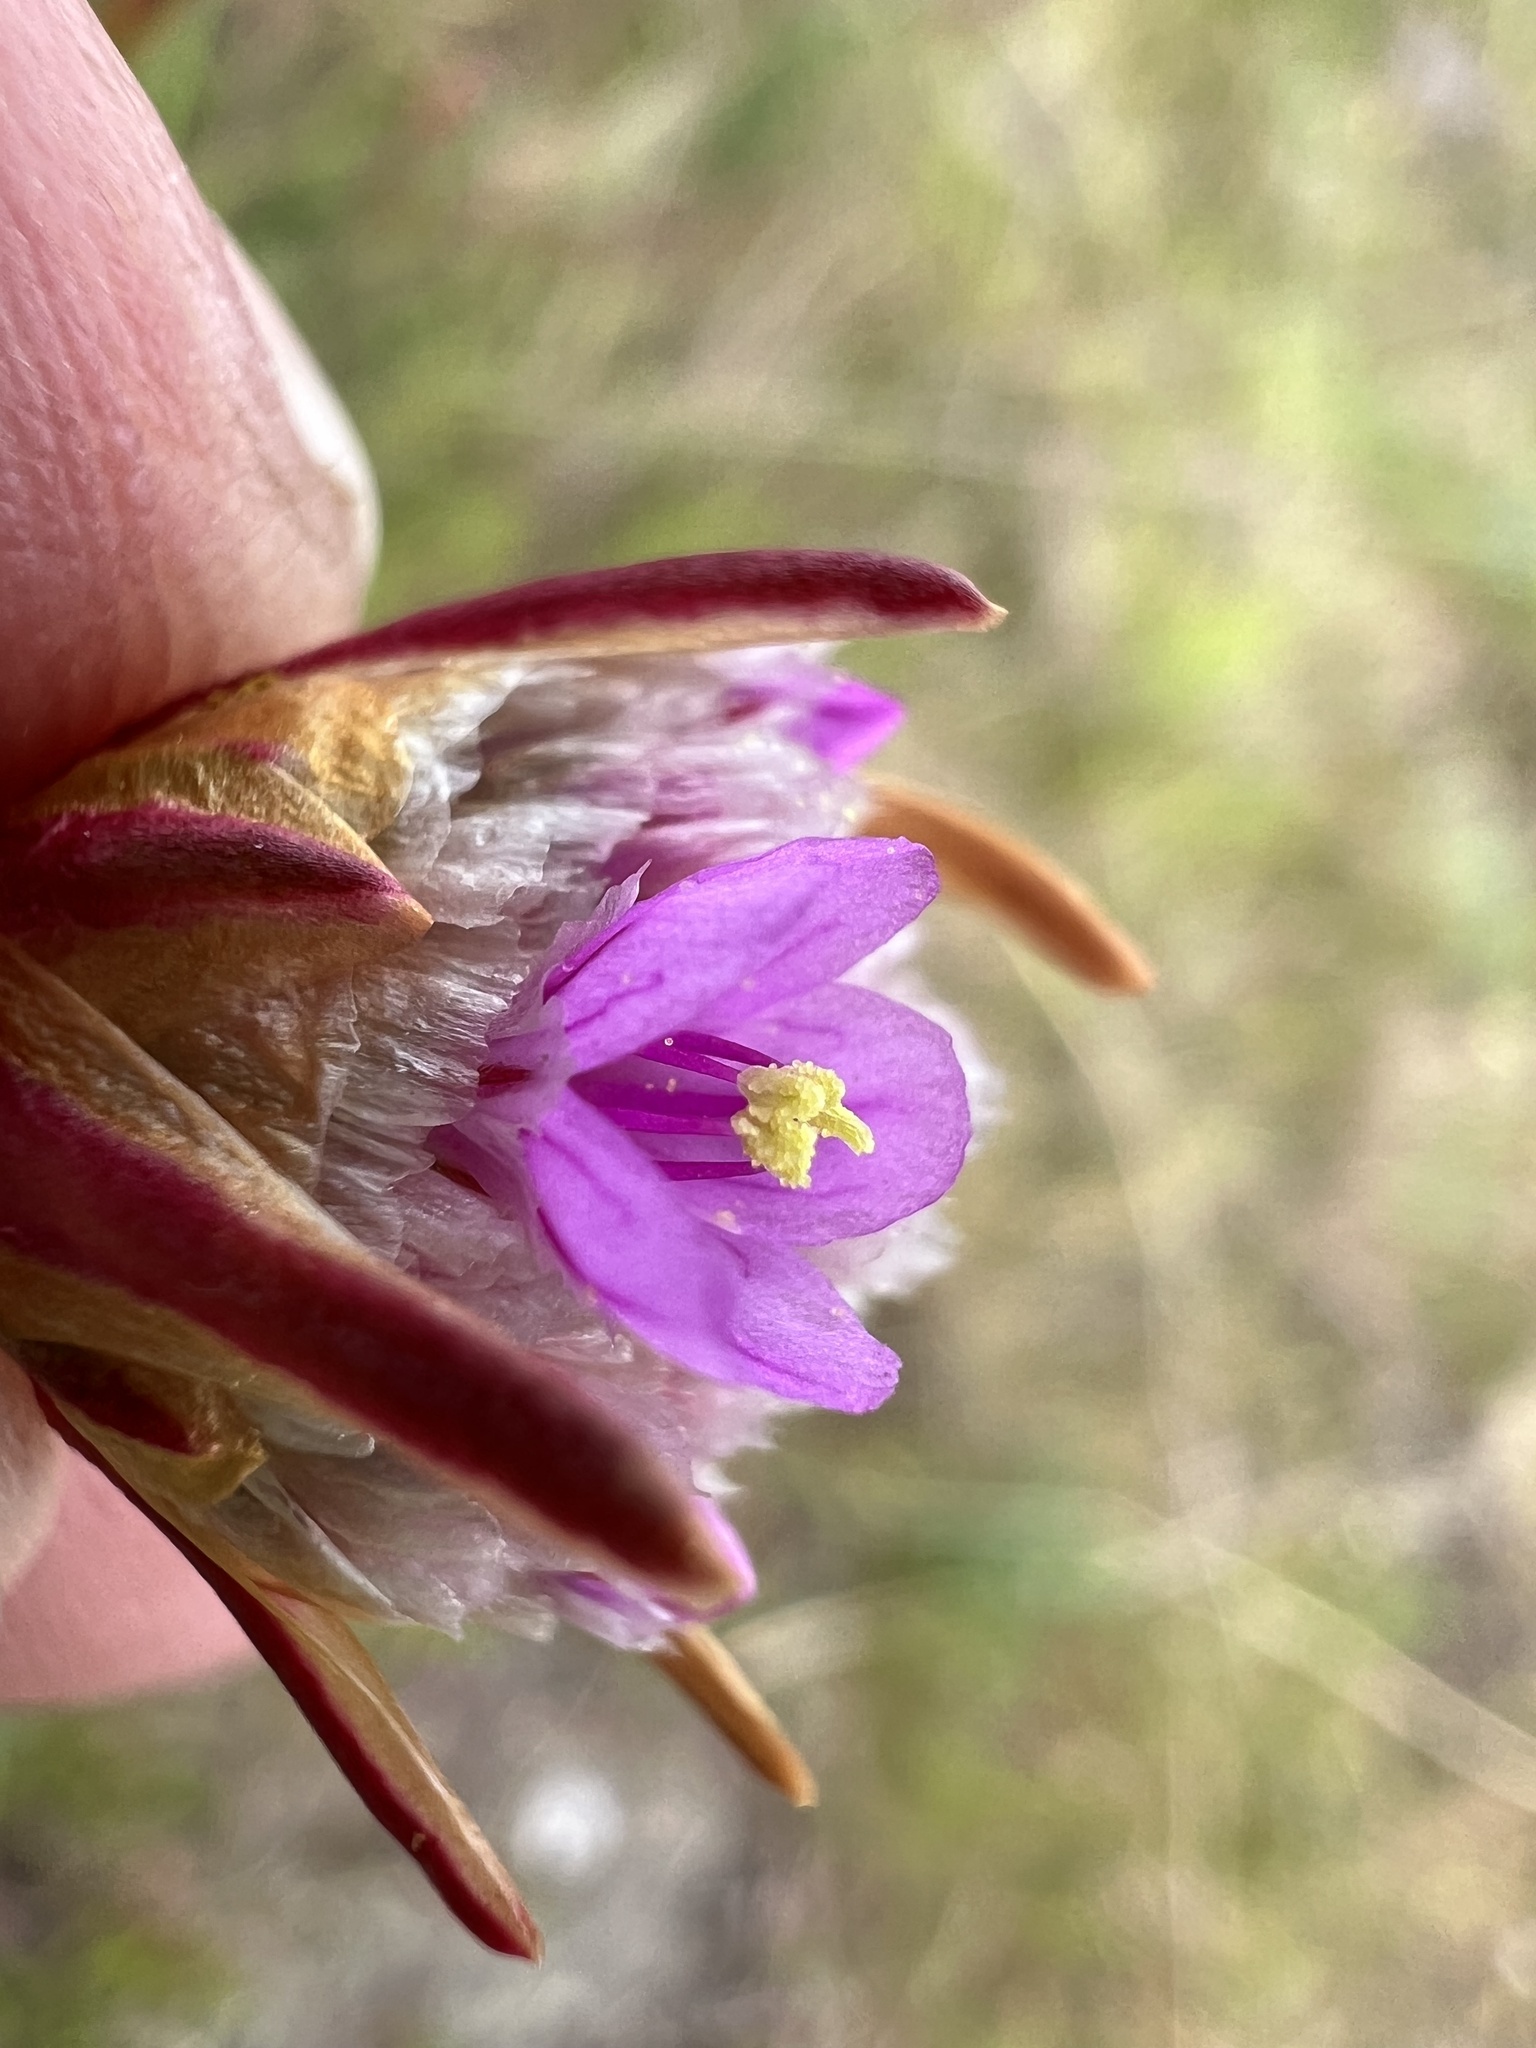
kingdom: Plantae
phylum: Tracheophyta
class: Magnoliopsida
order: Caryophyllales
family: Plumbaginaceae
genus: Armeria
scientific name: Armeria maritima
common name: Thrift
